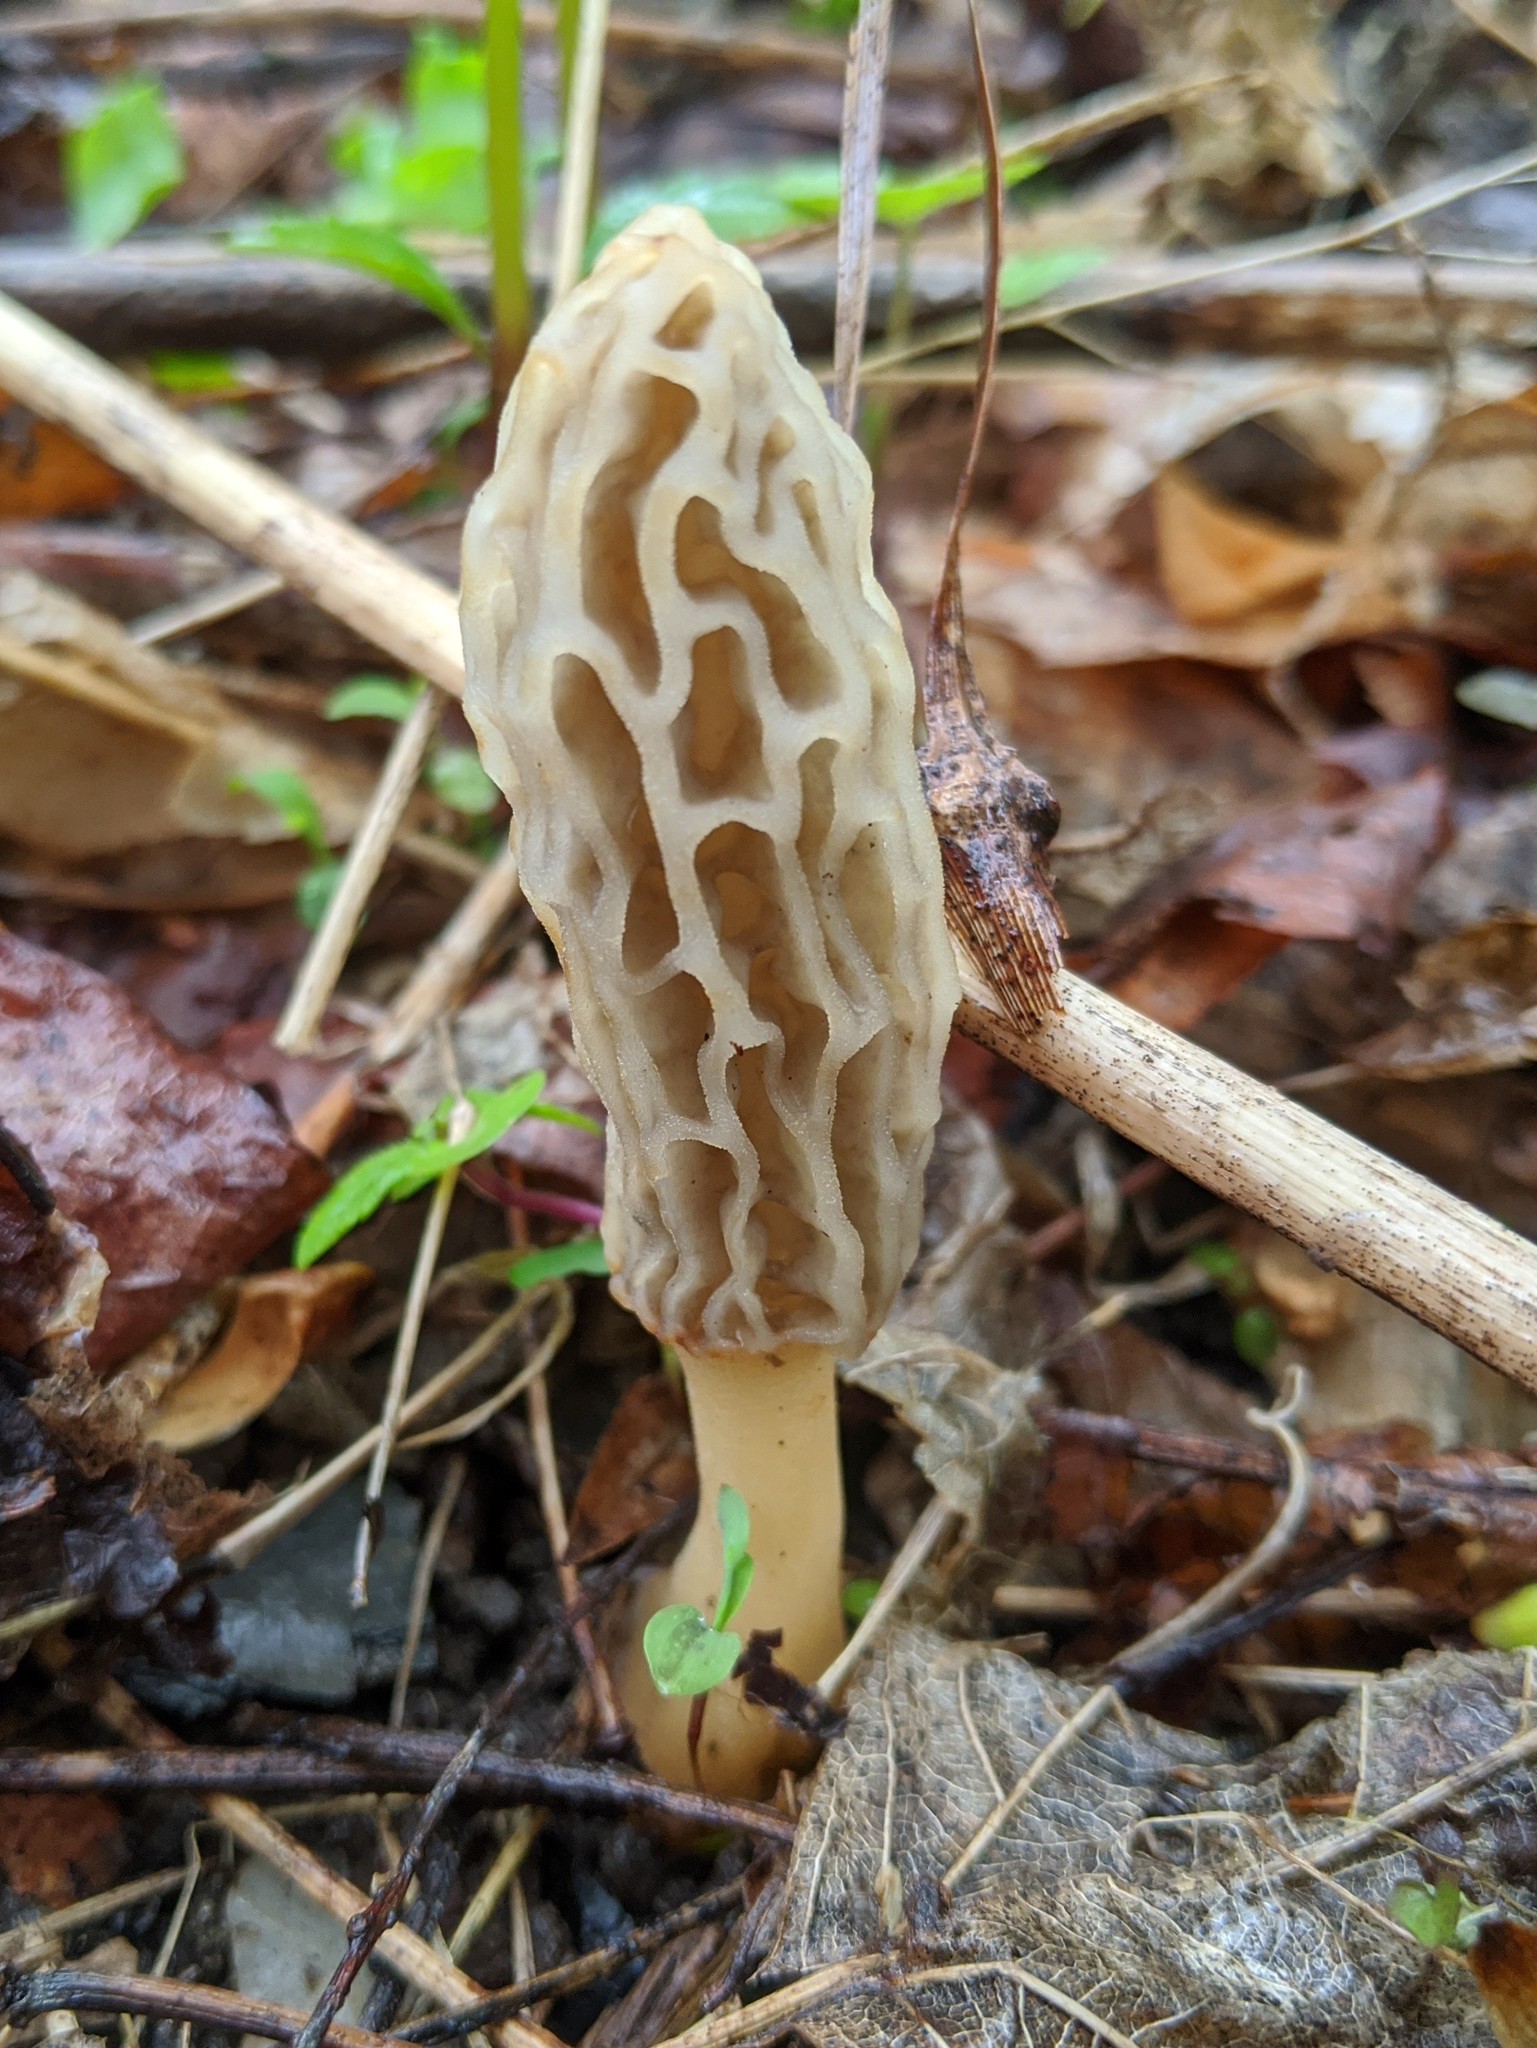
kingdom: Fungi
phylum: Ascomycota
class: Pezizomycetes
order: Pezizales
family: Morchellaceae
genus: Morchella
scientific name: Morchella diminutiva
